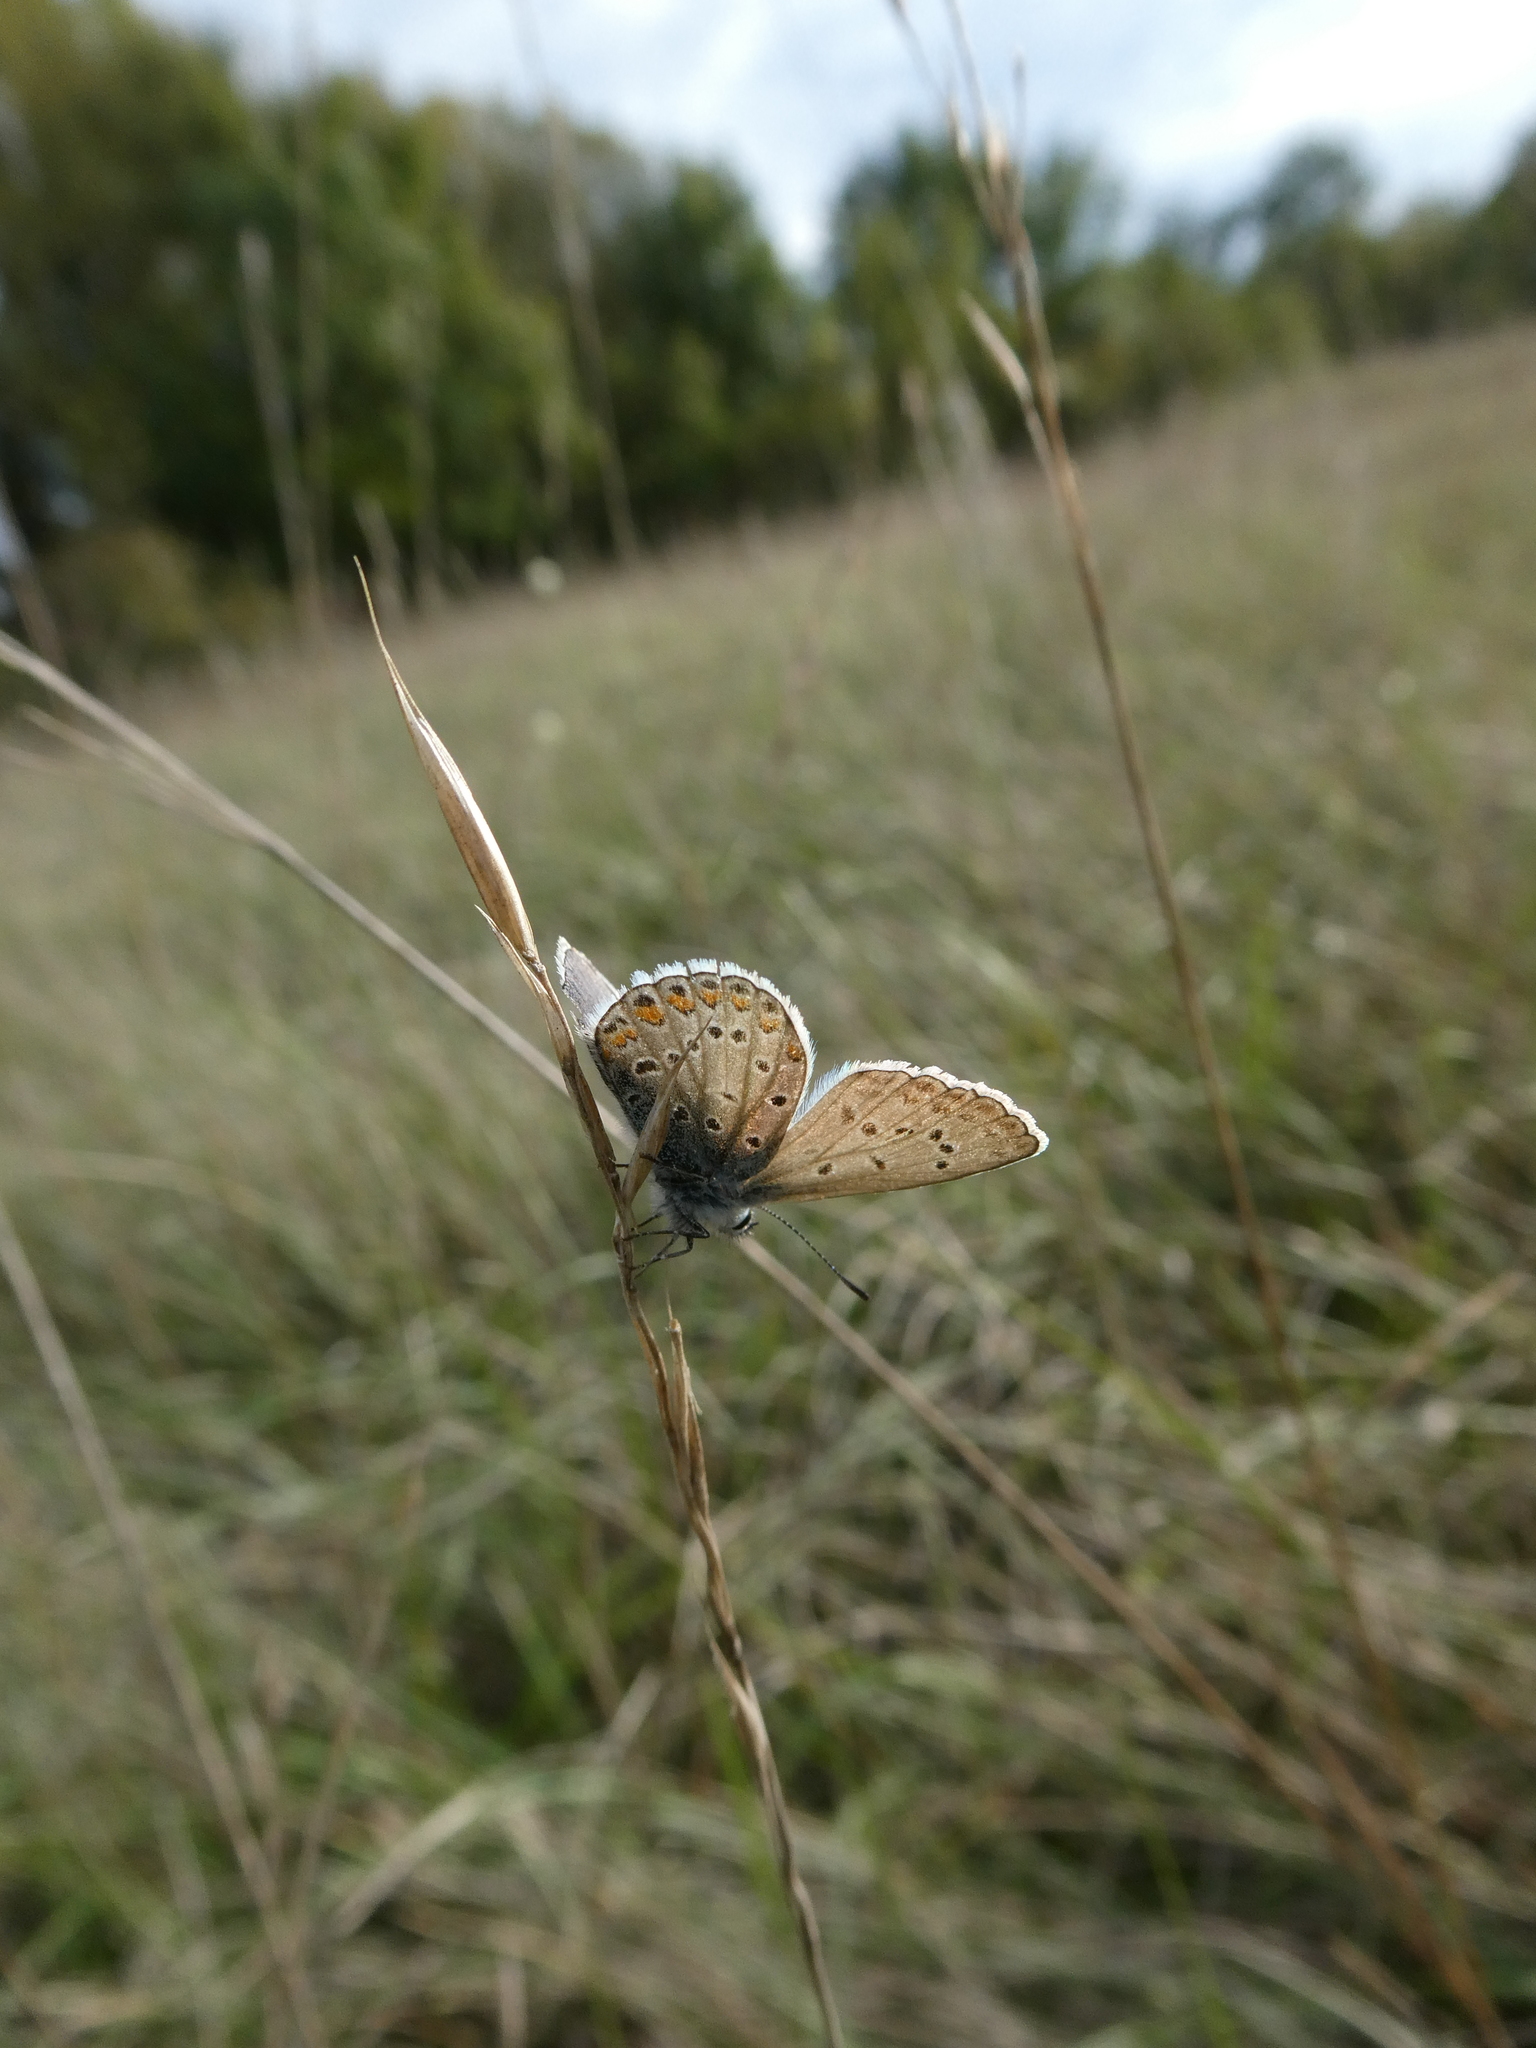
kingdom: Animalia
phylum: Arthropoda
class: Insecta
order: Lepidoptera
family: Lycaenidae
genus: Polyommatus
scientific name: Polyommatus icarus
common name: Common blue
